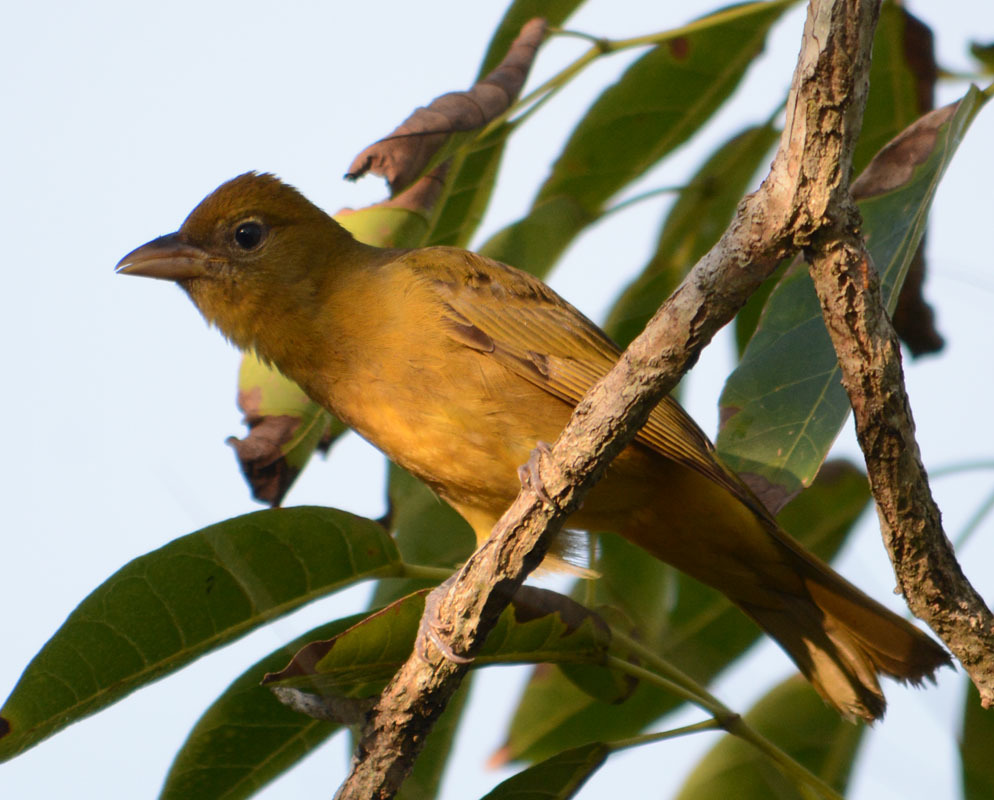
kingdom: Animalia
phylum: Chordata
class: Aves
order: Passeriformes
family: Cardinalidae
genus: Piranga
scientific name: Piranga rubra
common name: Summer tanager
